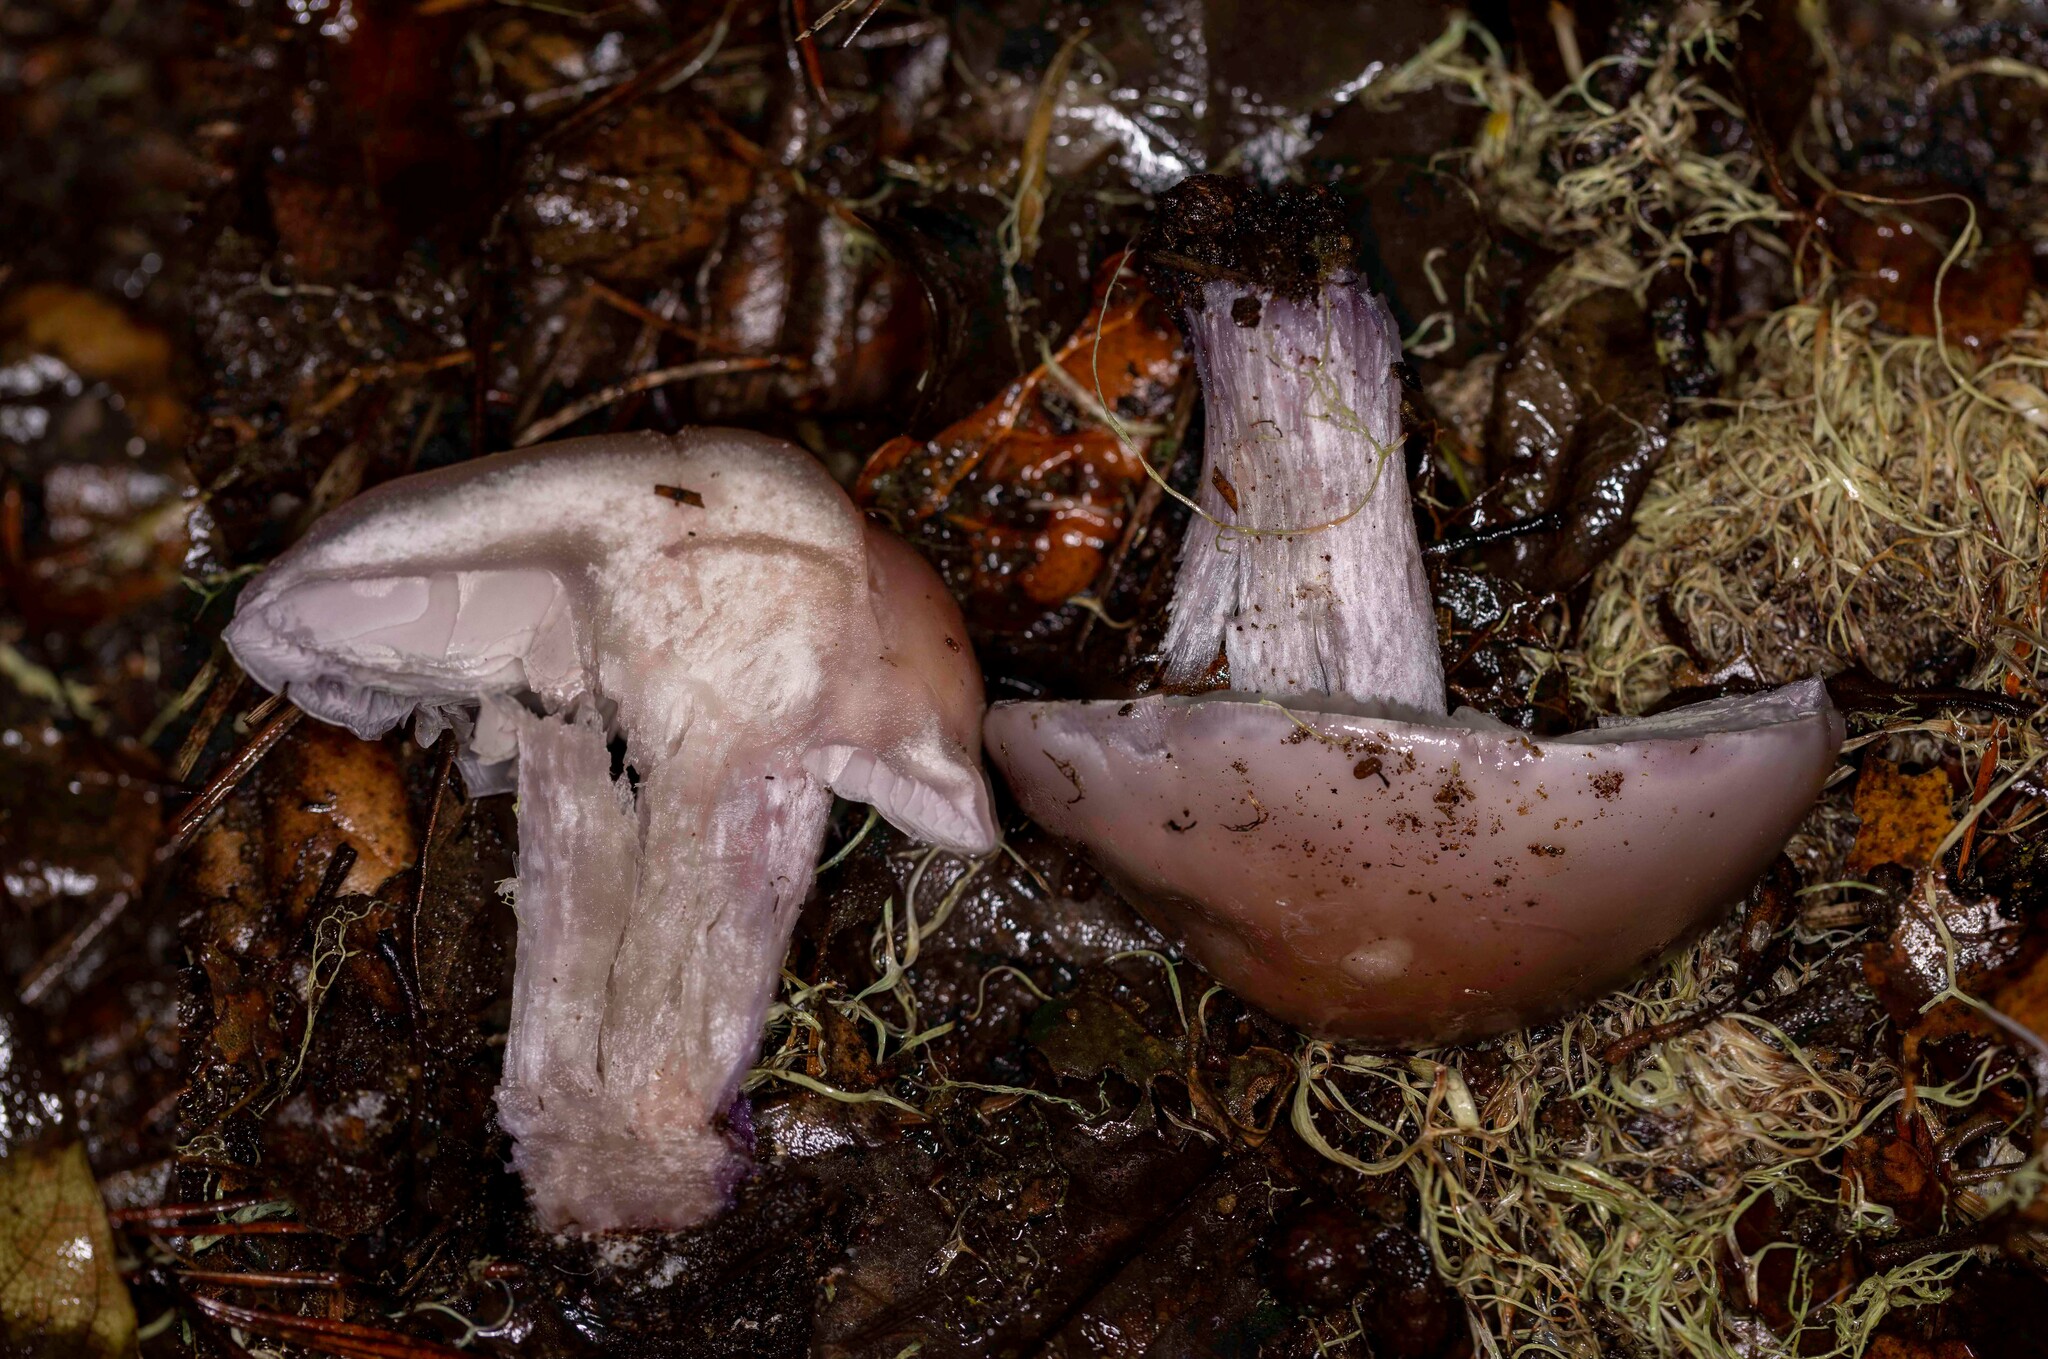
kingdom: Fungi
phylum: Basidiomycota
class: Agaricomycetes
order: Agaricales
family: Tricholomataceae
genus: Collybia
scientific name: Collybia
